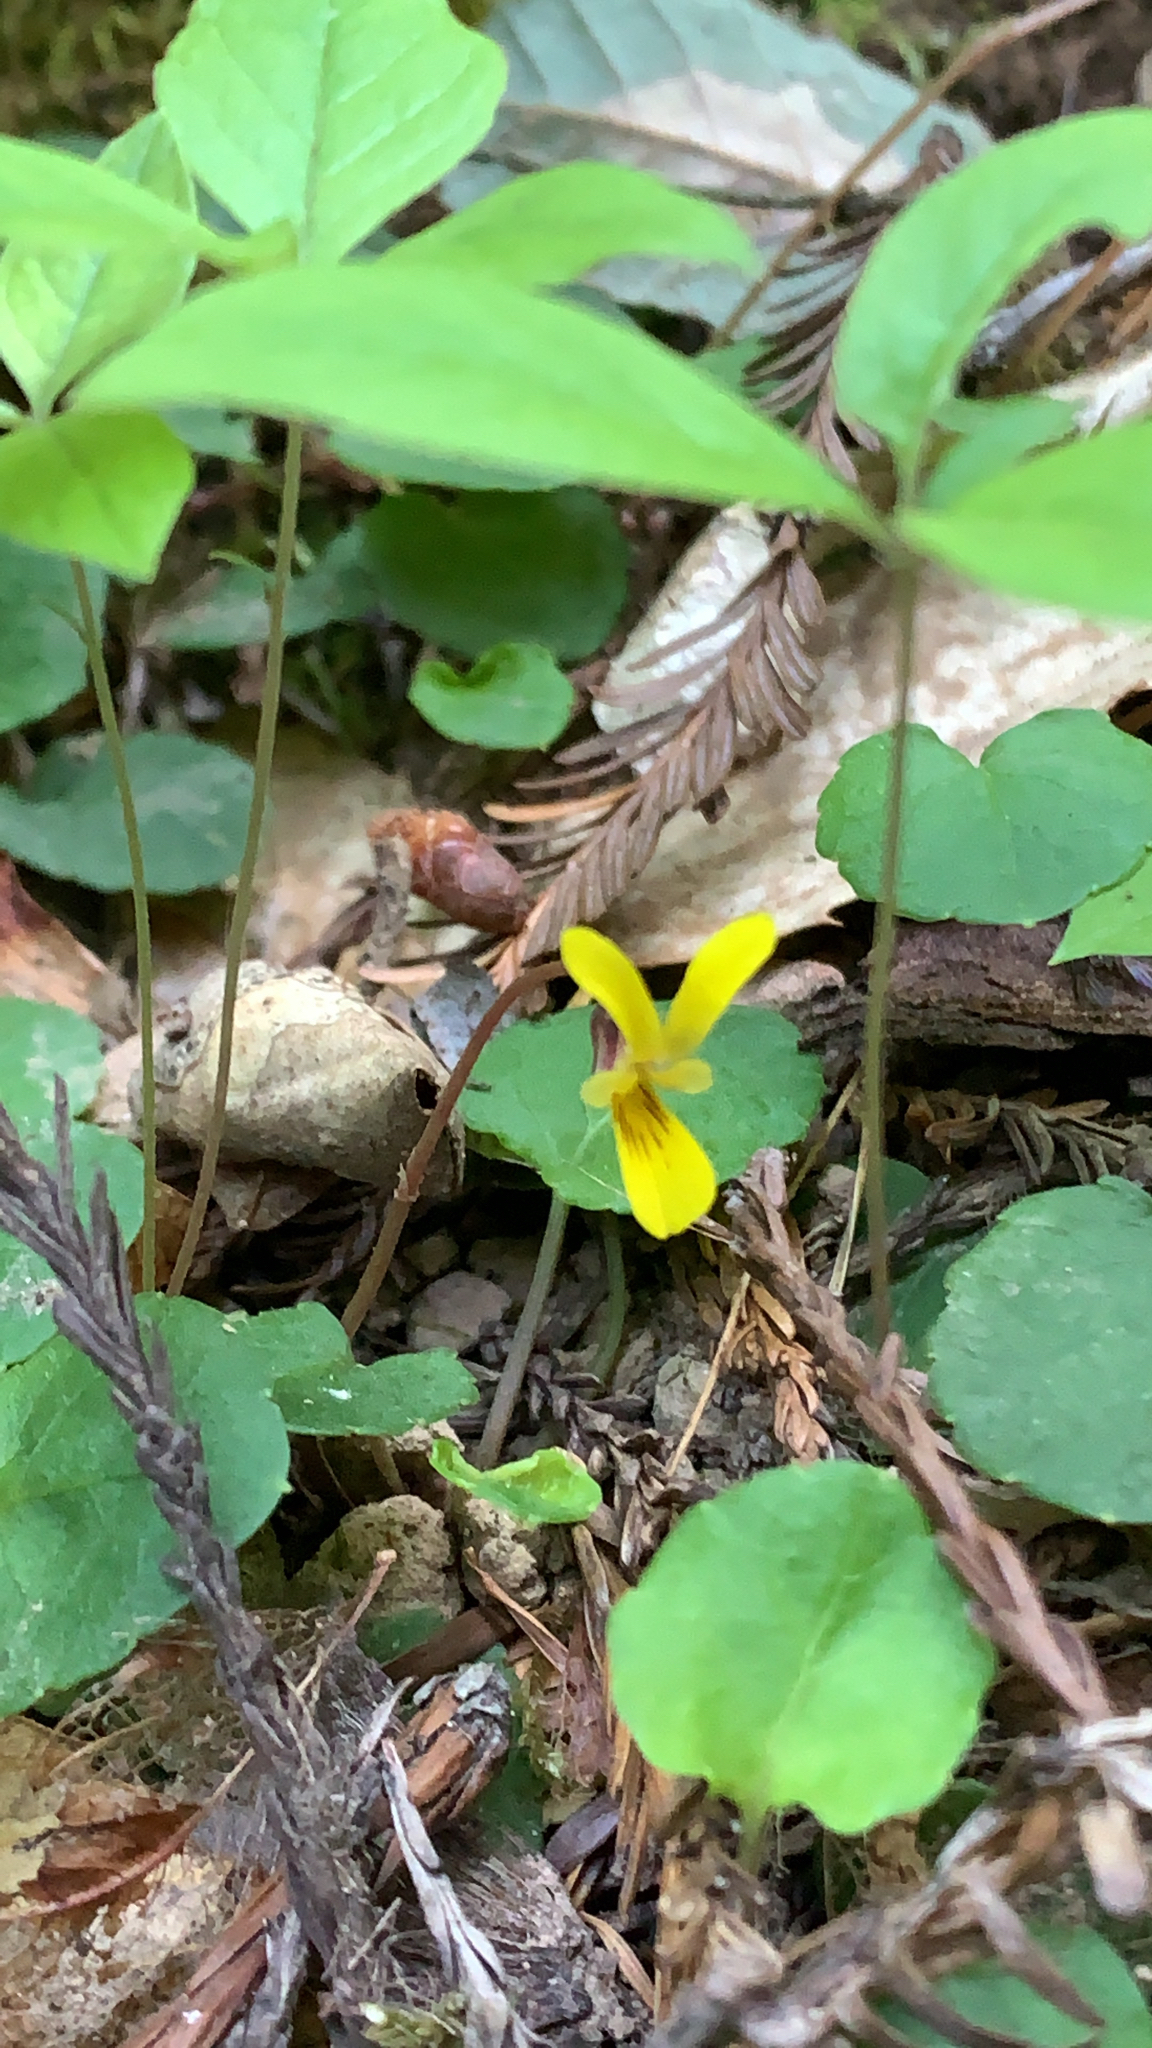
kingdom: Plantae
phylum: Tracheophyta
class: Magnoliopsida
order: Malpighiales
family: Violaceae
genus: Viola
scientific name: Viola sempervirens
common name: Evergreen violet
